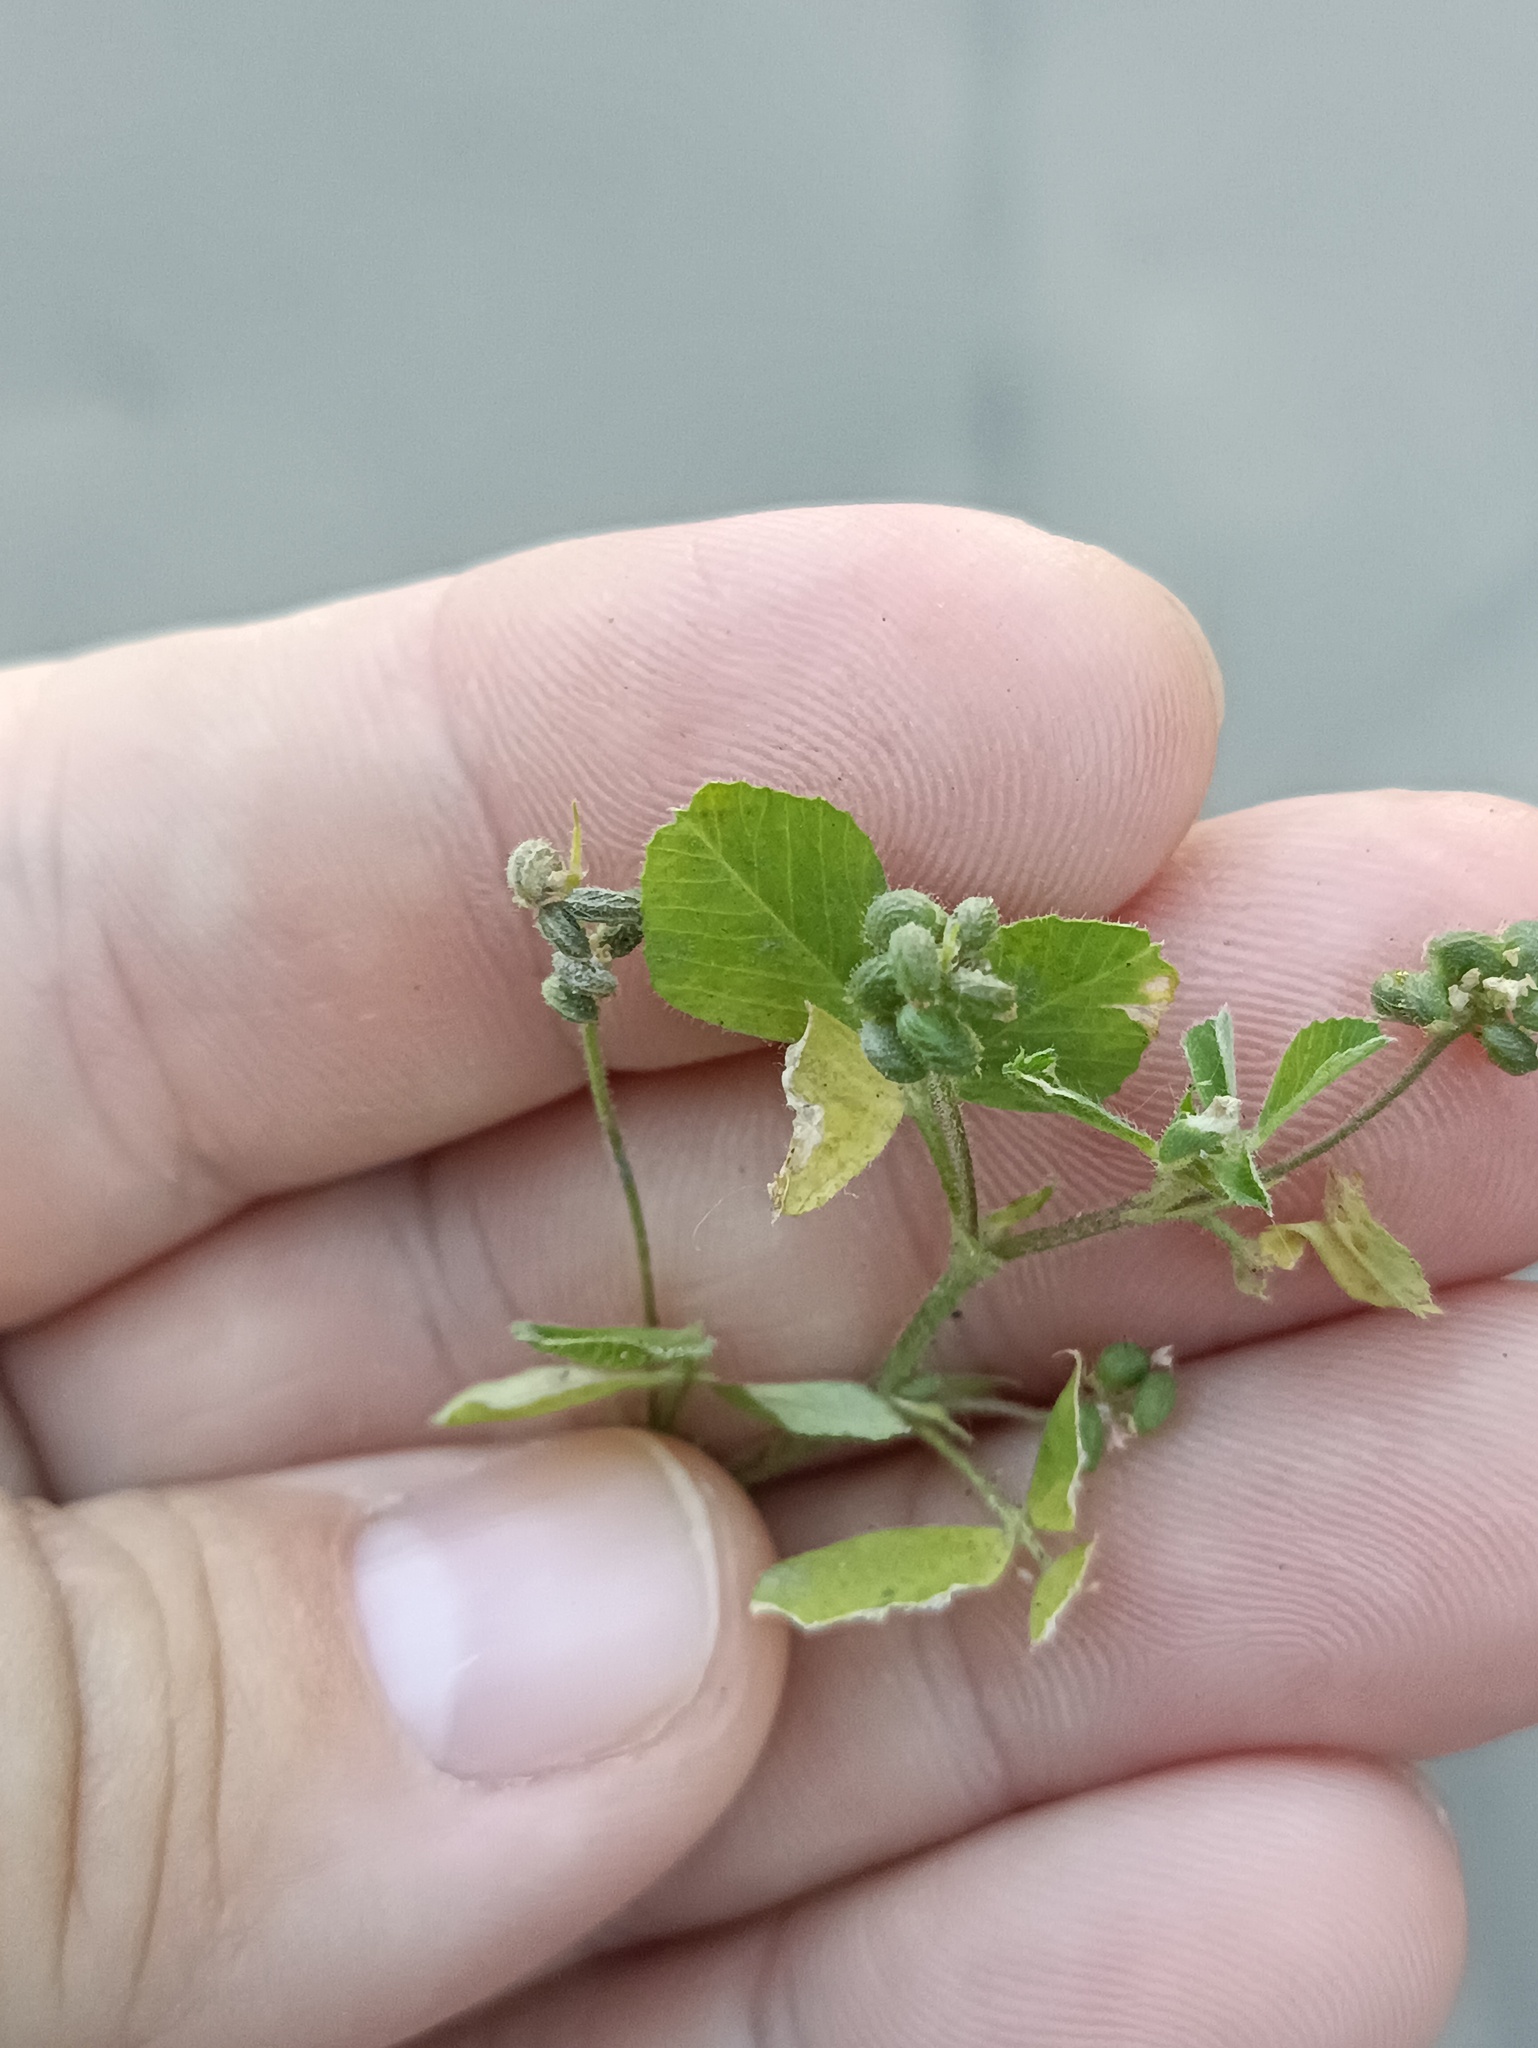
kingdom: Plantae
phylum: Tracheophyta
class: Magnoliopsida
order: Fabales
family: Fabaceae
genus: Medicago
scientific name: Medicago lupulina
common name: Black medick
